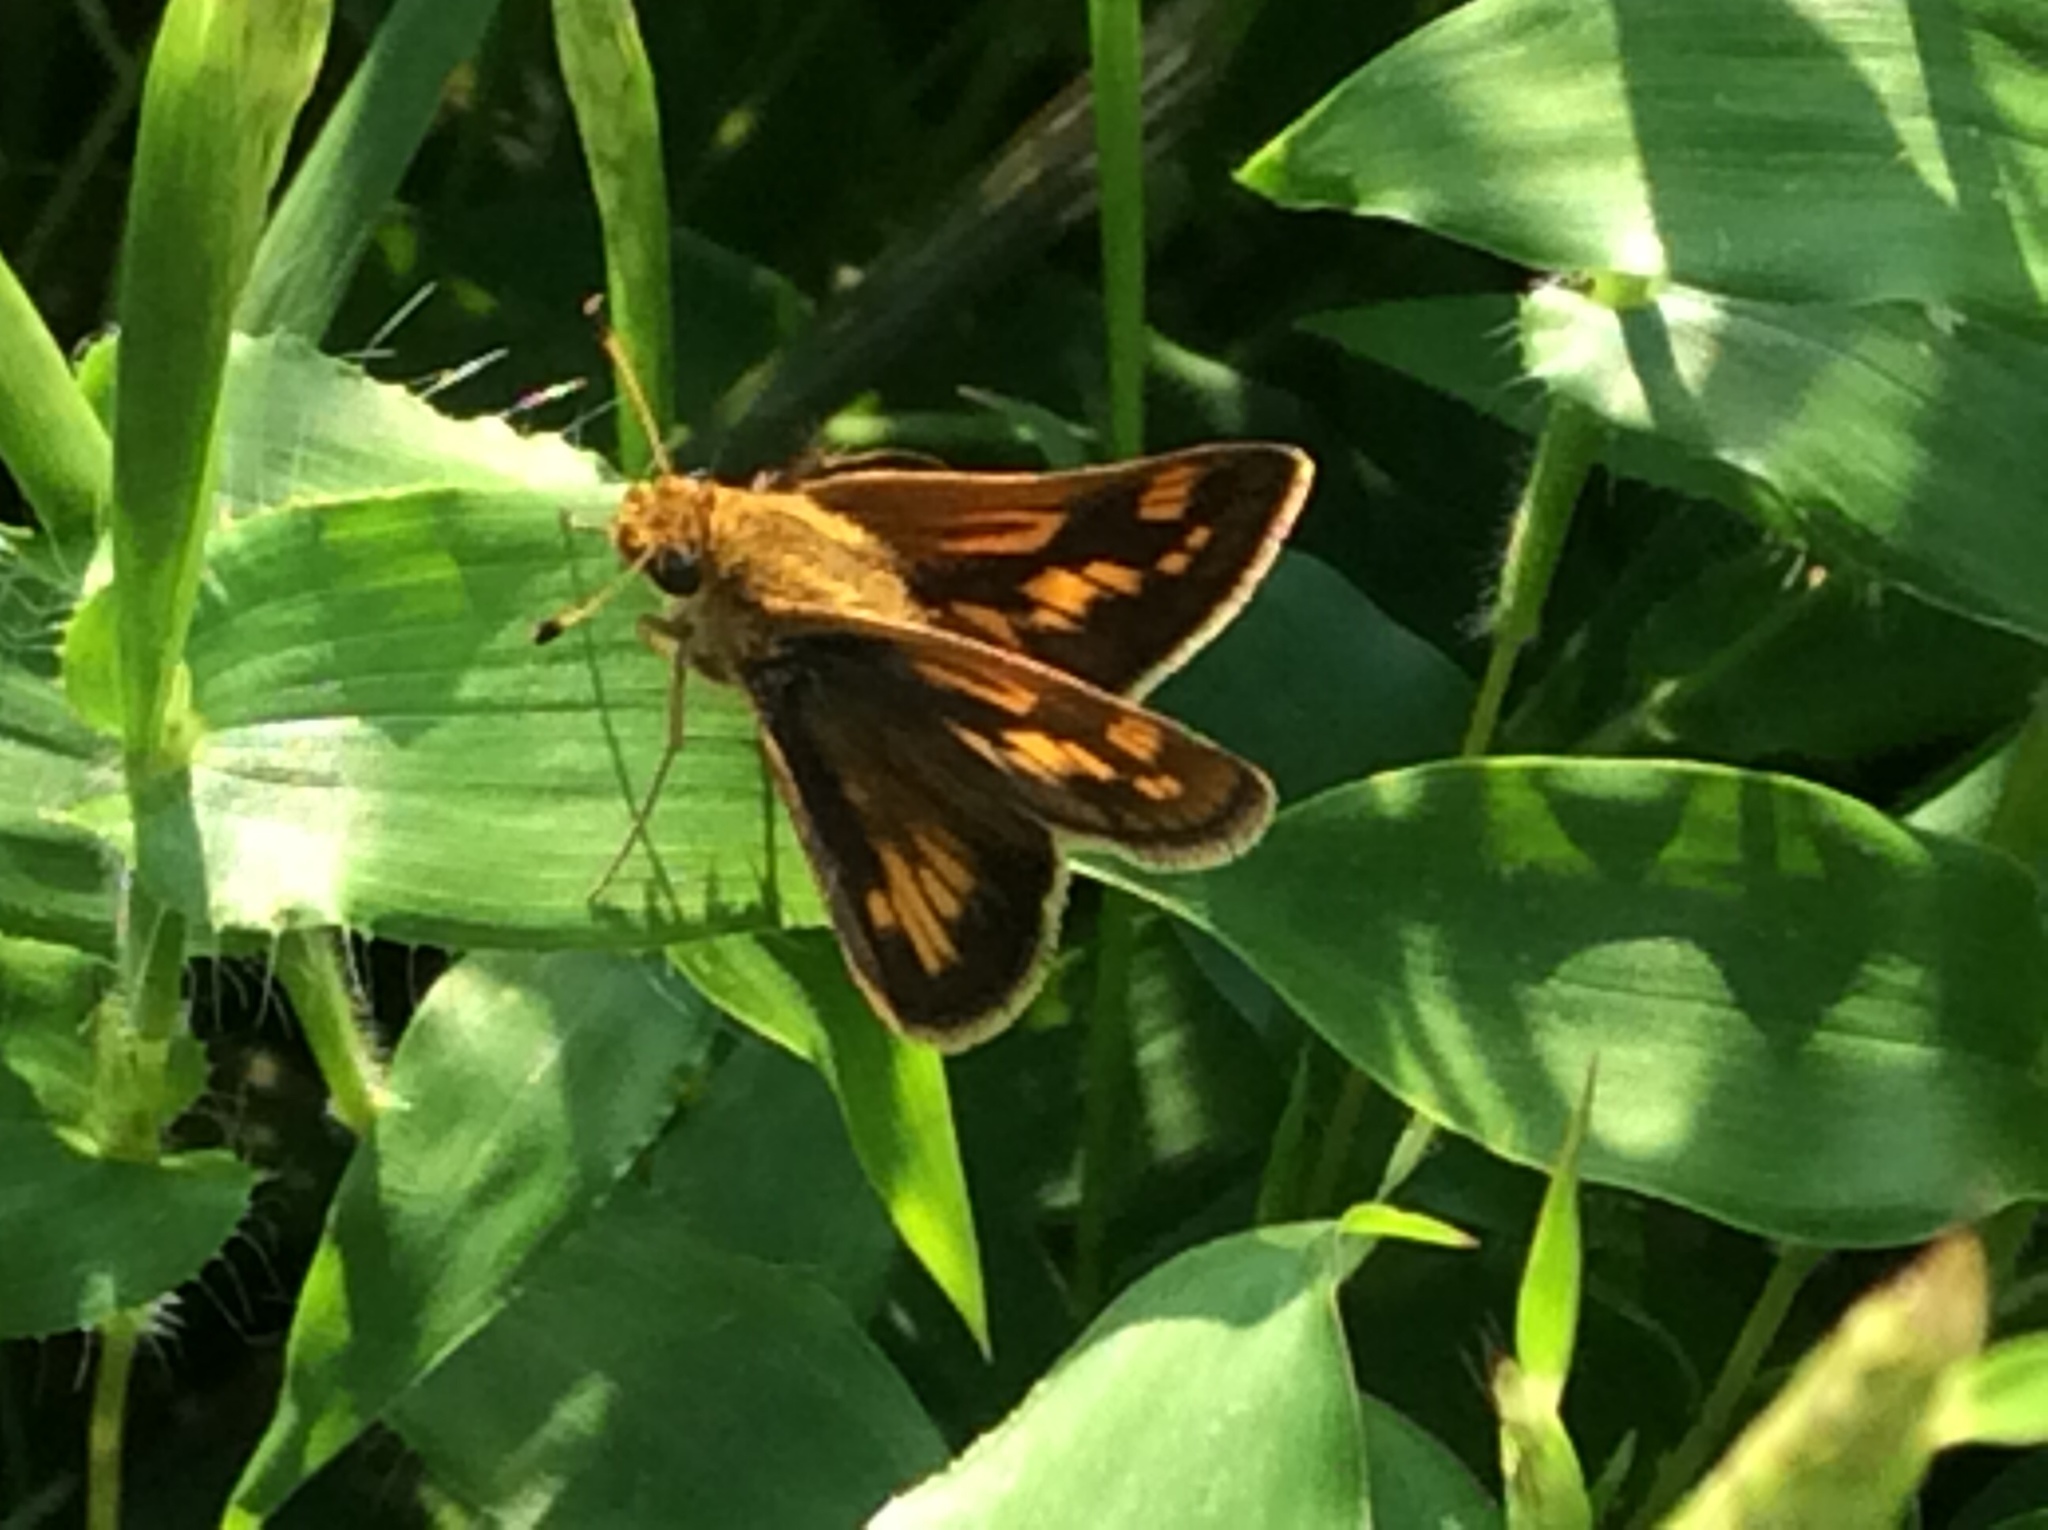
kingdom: Animalia
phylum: Arthropoda
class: Insecta
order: Lepidoptera
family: Hesperiidae
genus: Polites
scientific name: Polites coras
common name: Peck's skipper
